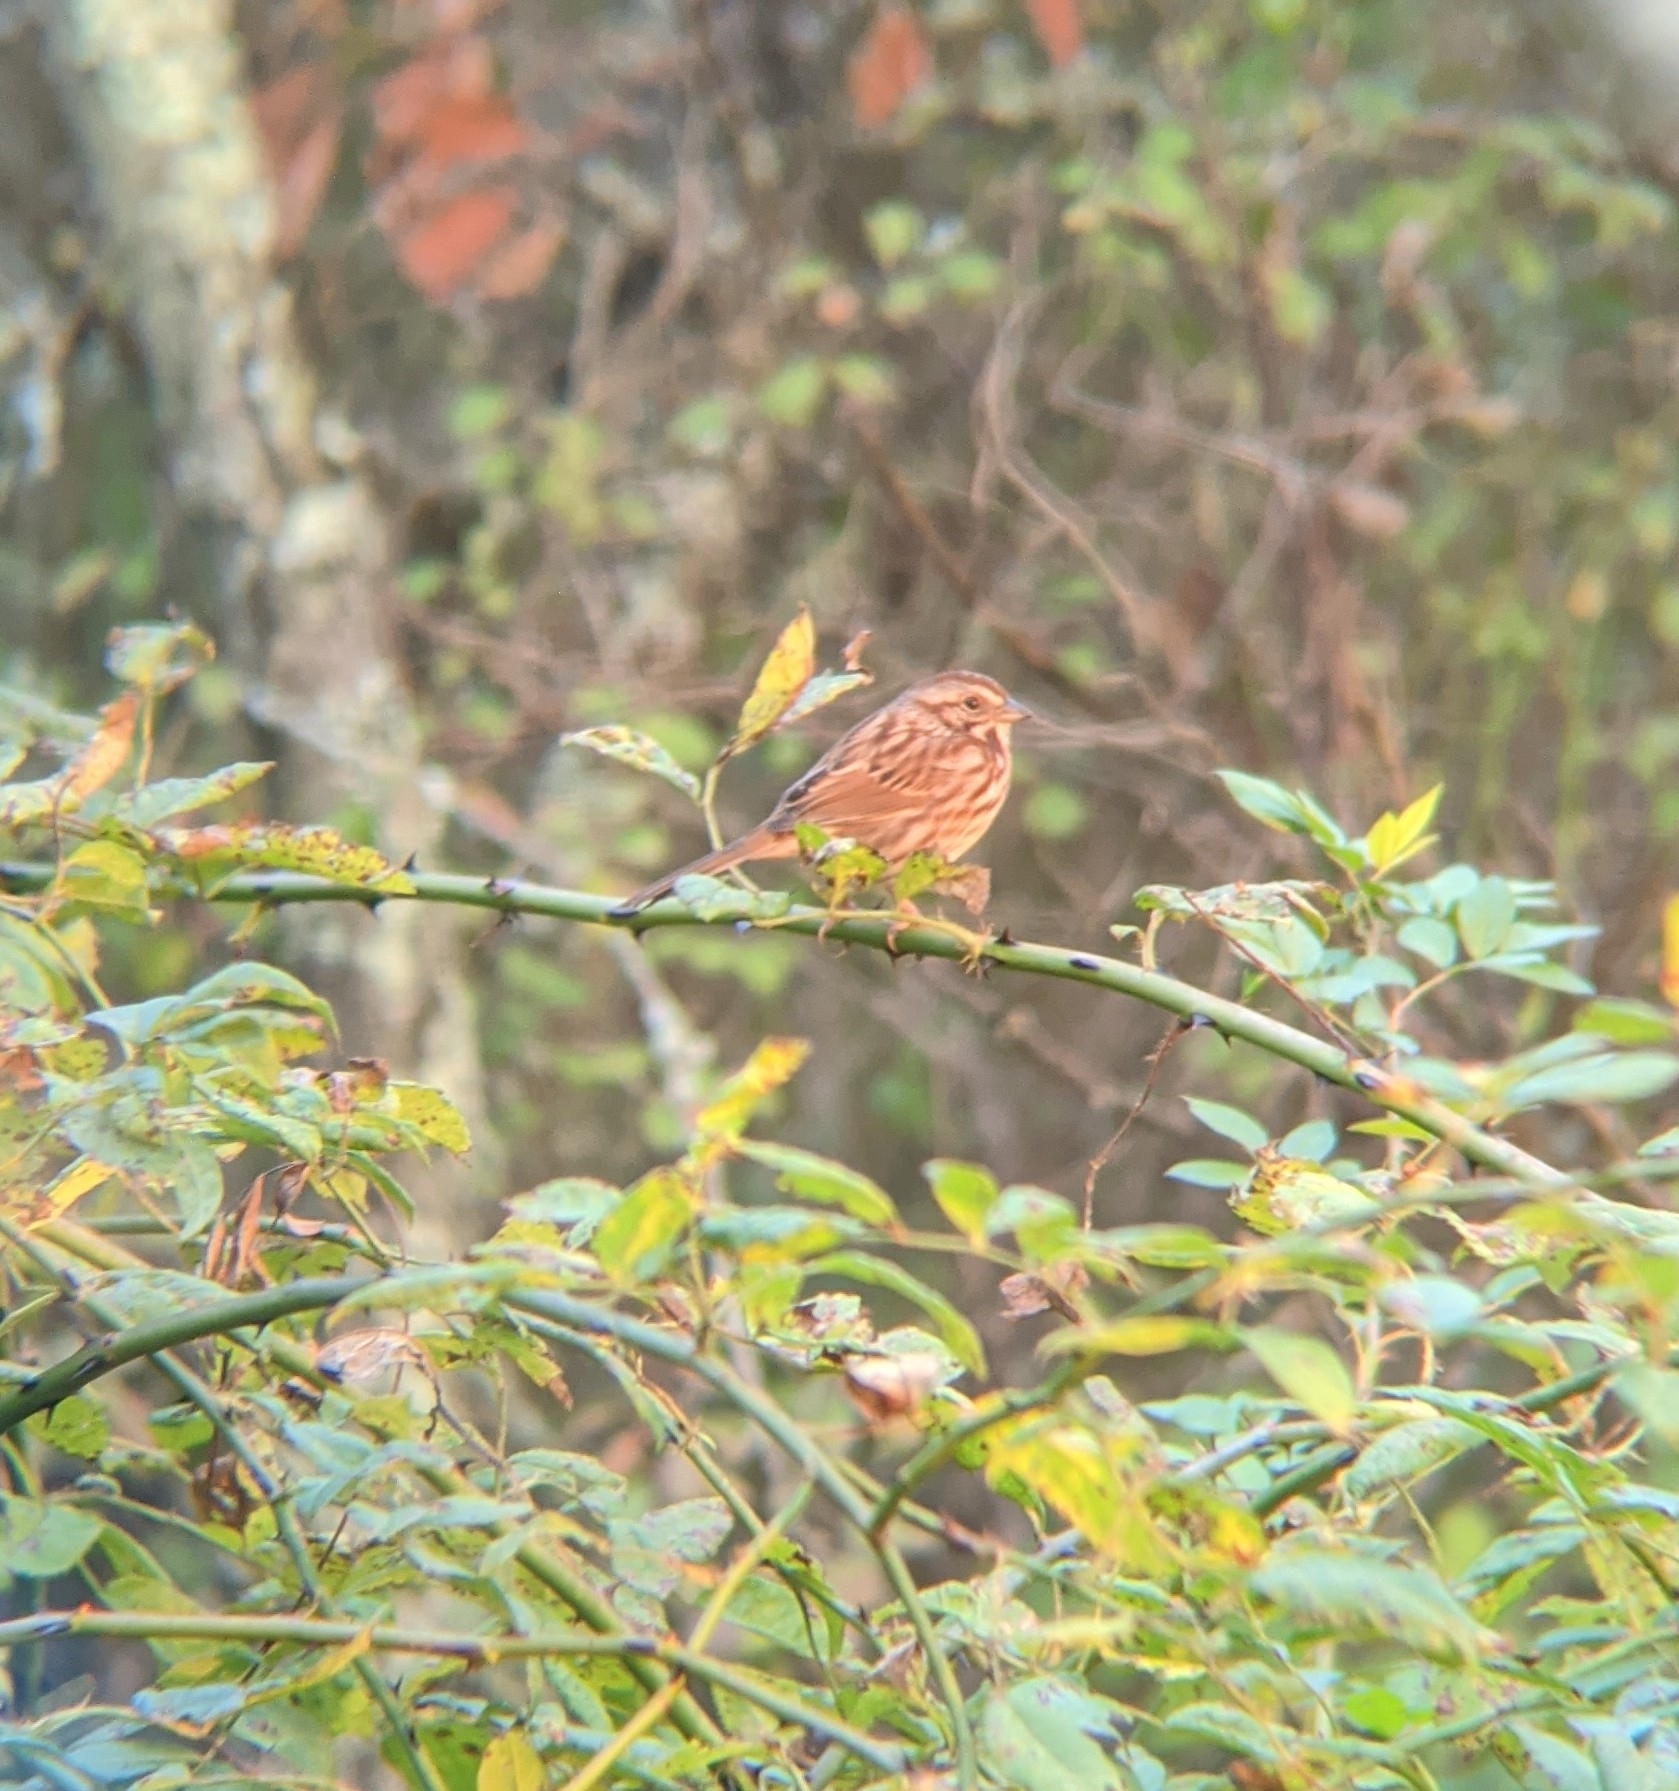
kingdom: Animalia
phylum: Chordata
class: Aves
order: Passeriformes
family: Passerellidae
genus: Melospiza
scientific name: Melospiza melodia
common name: Song sparrow
